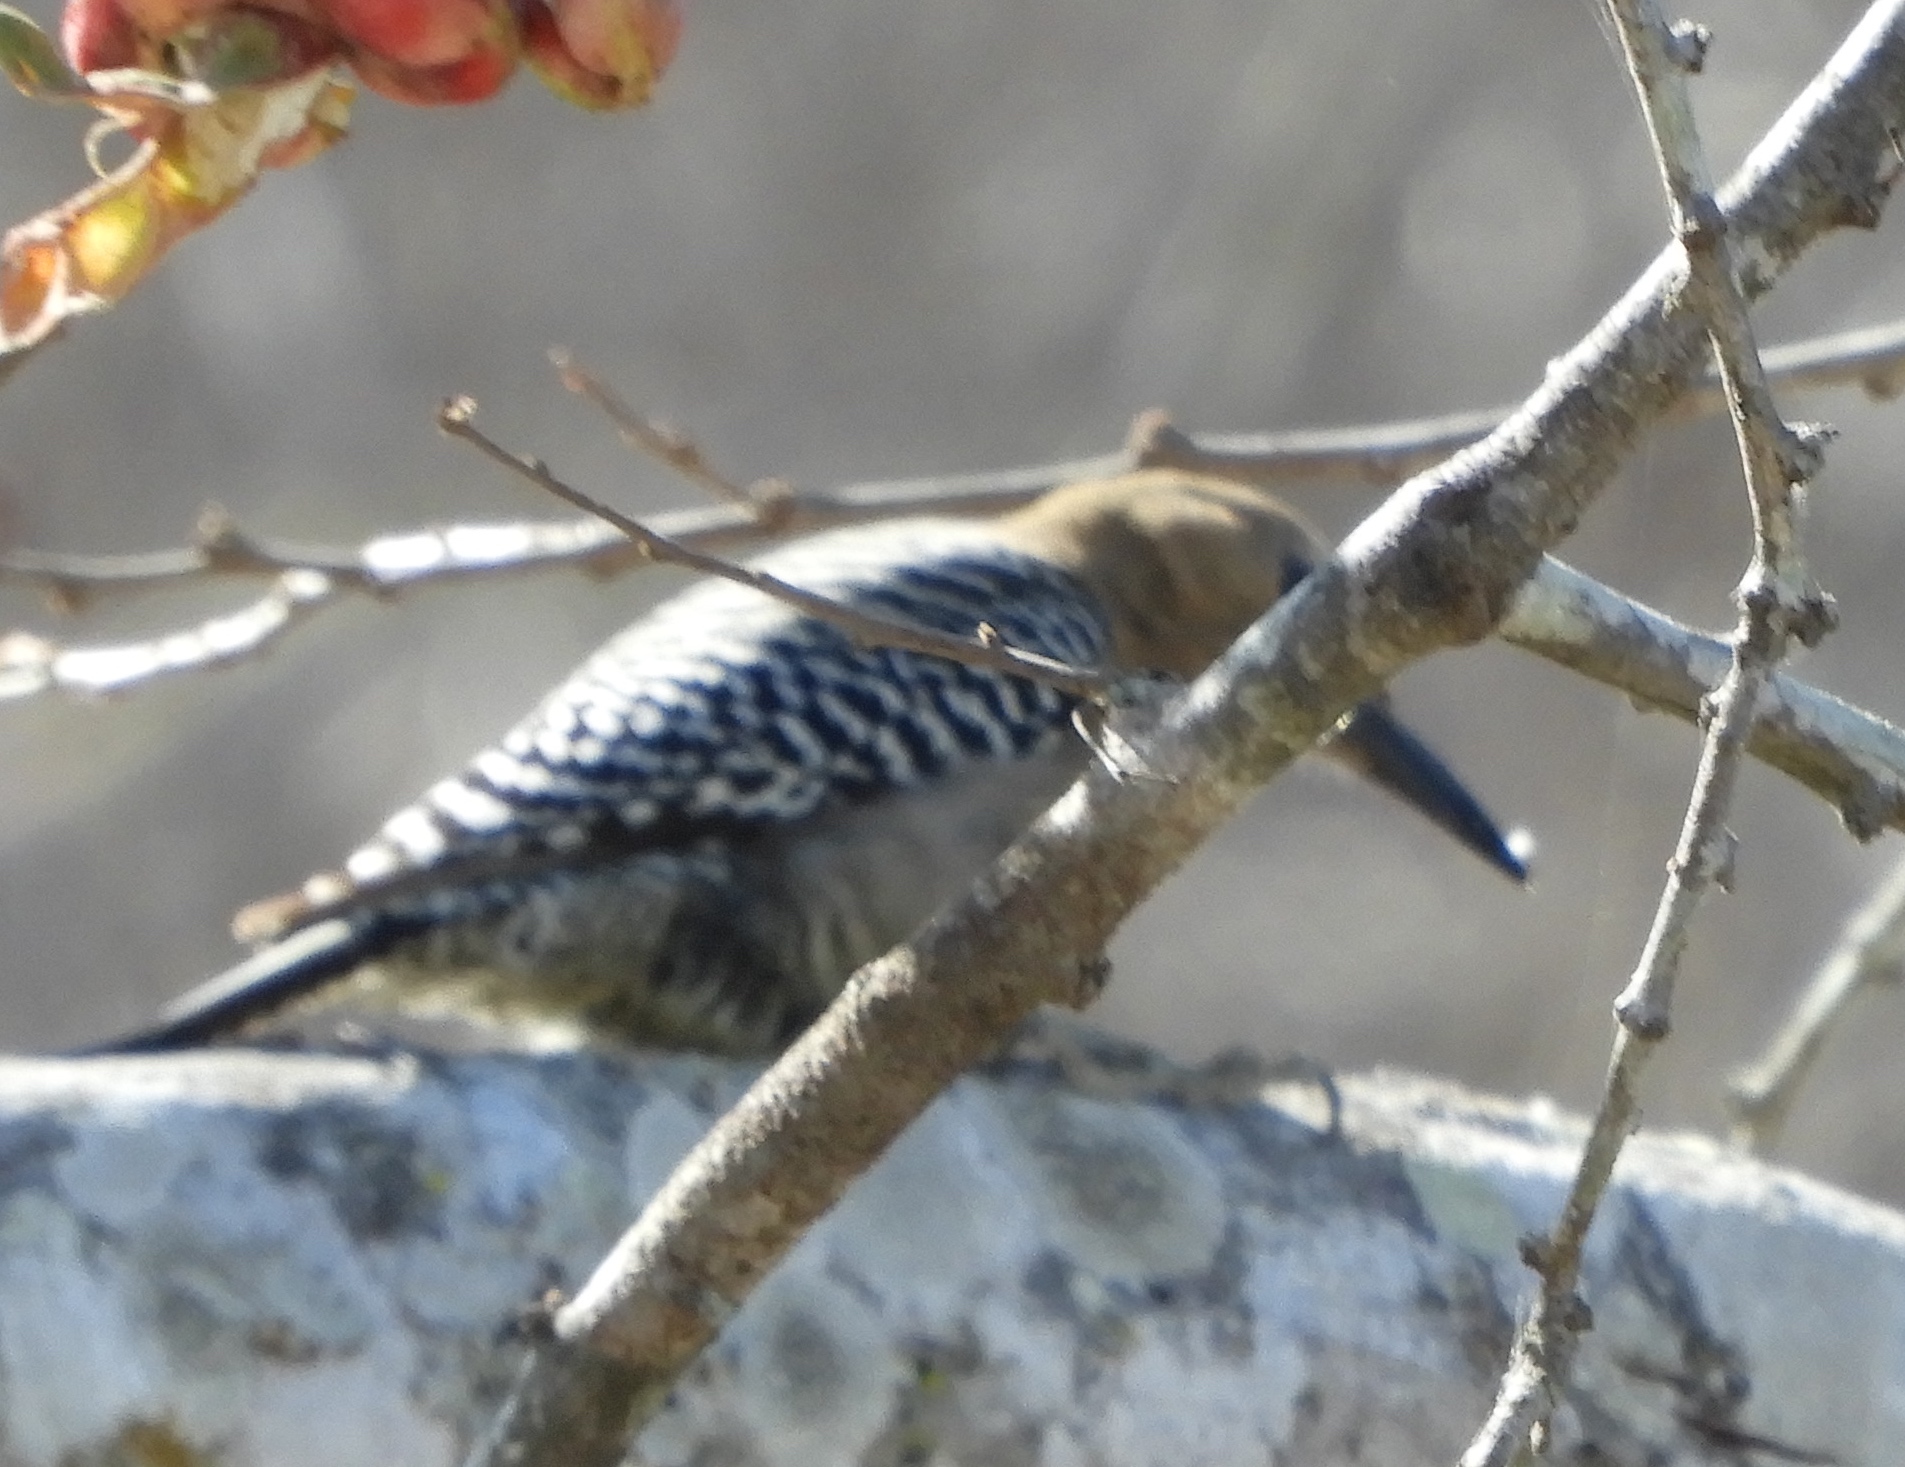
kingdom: Animalia
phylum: Chordata
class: Aves
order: Piciformes
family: Picidae
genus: Melanerpes
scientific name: Melanerpes uropygialis
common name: Gila woodpecker
